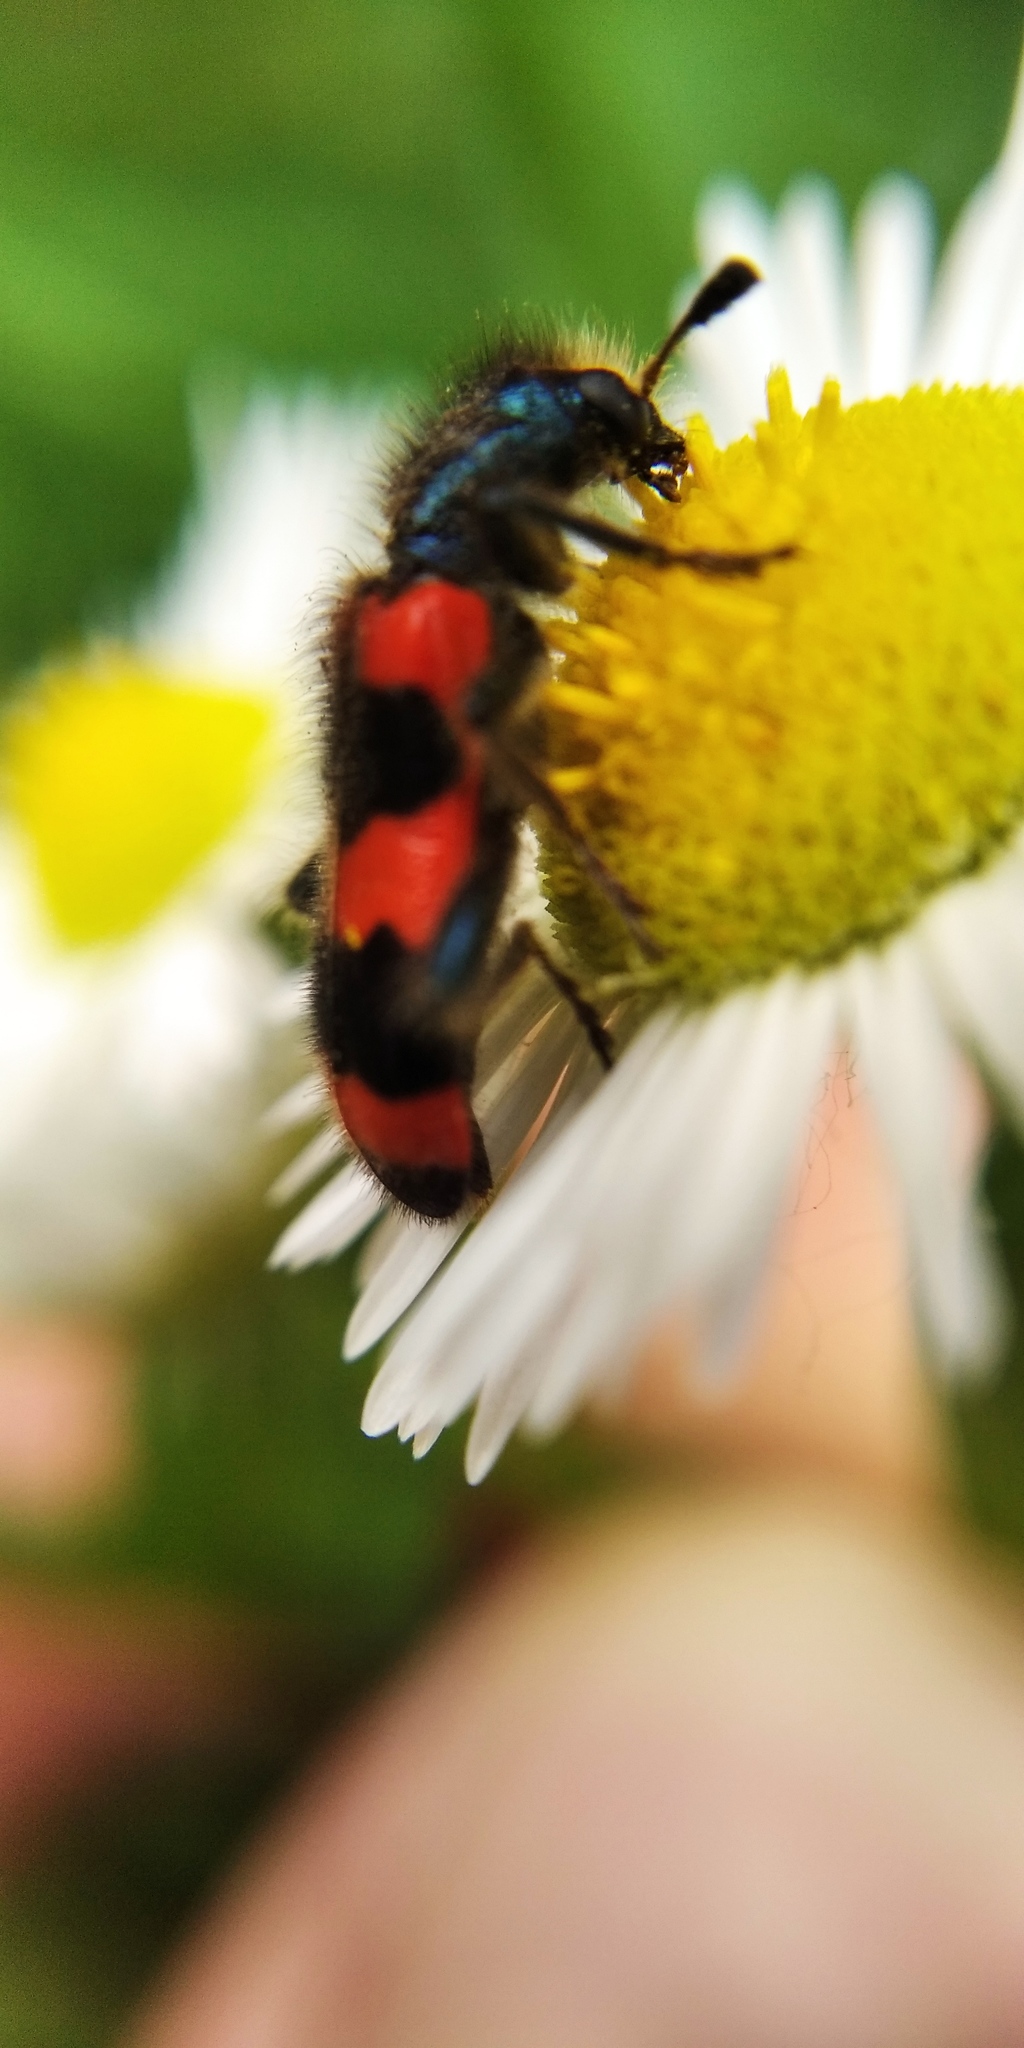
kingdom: Animalia
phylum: Arthropoda
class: Insecta
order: Coleoptera
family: Cleridae
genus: Trichodes
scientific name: Trichodes apiarius
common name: Bee-eating beetle
